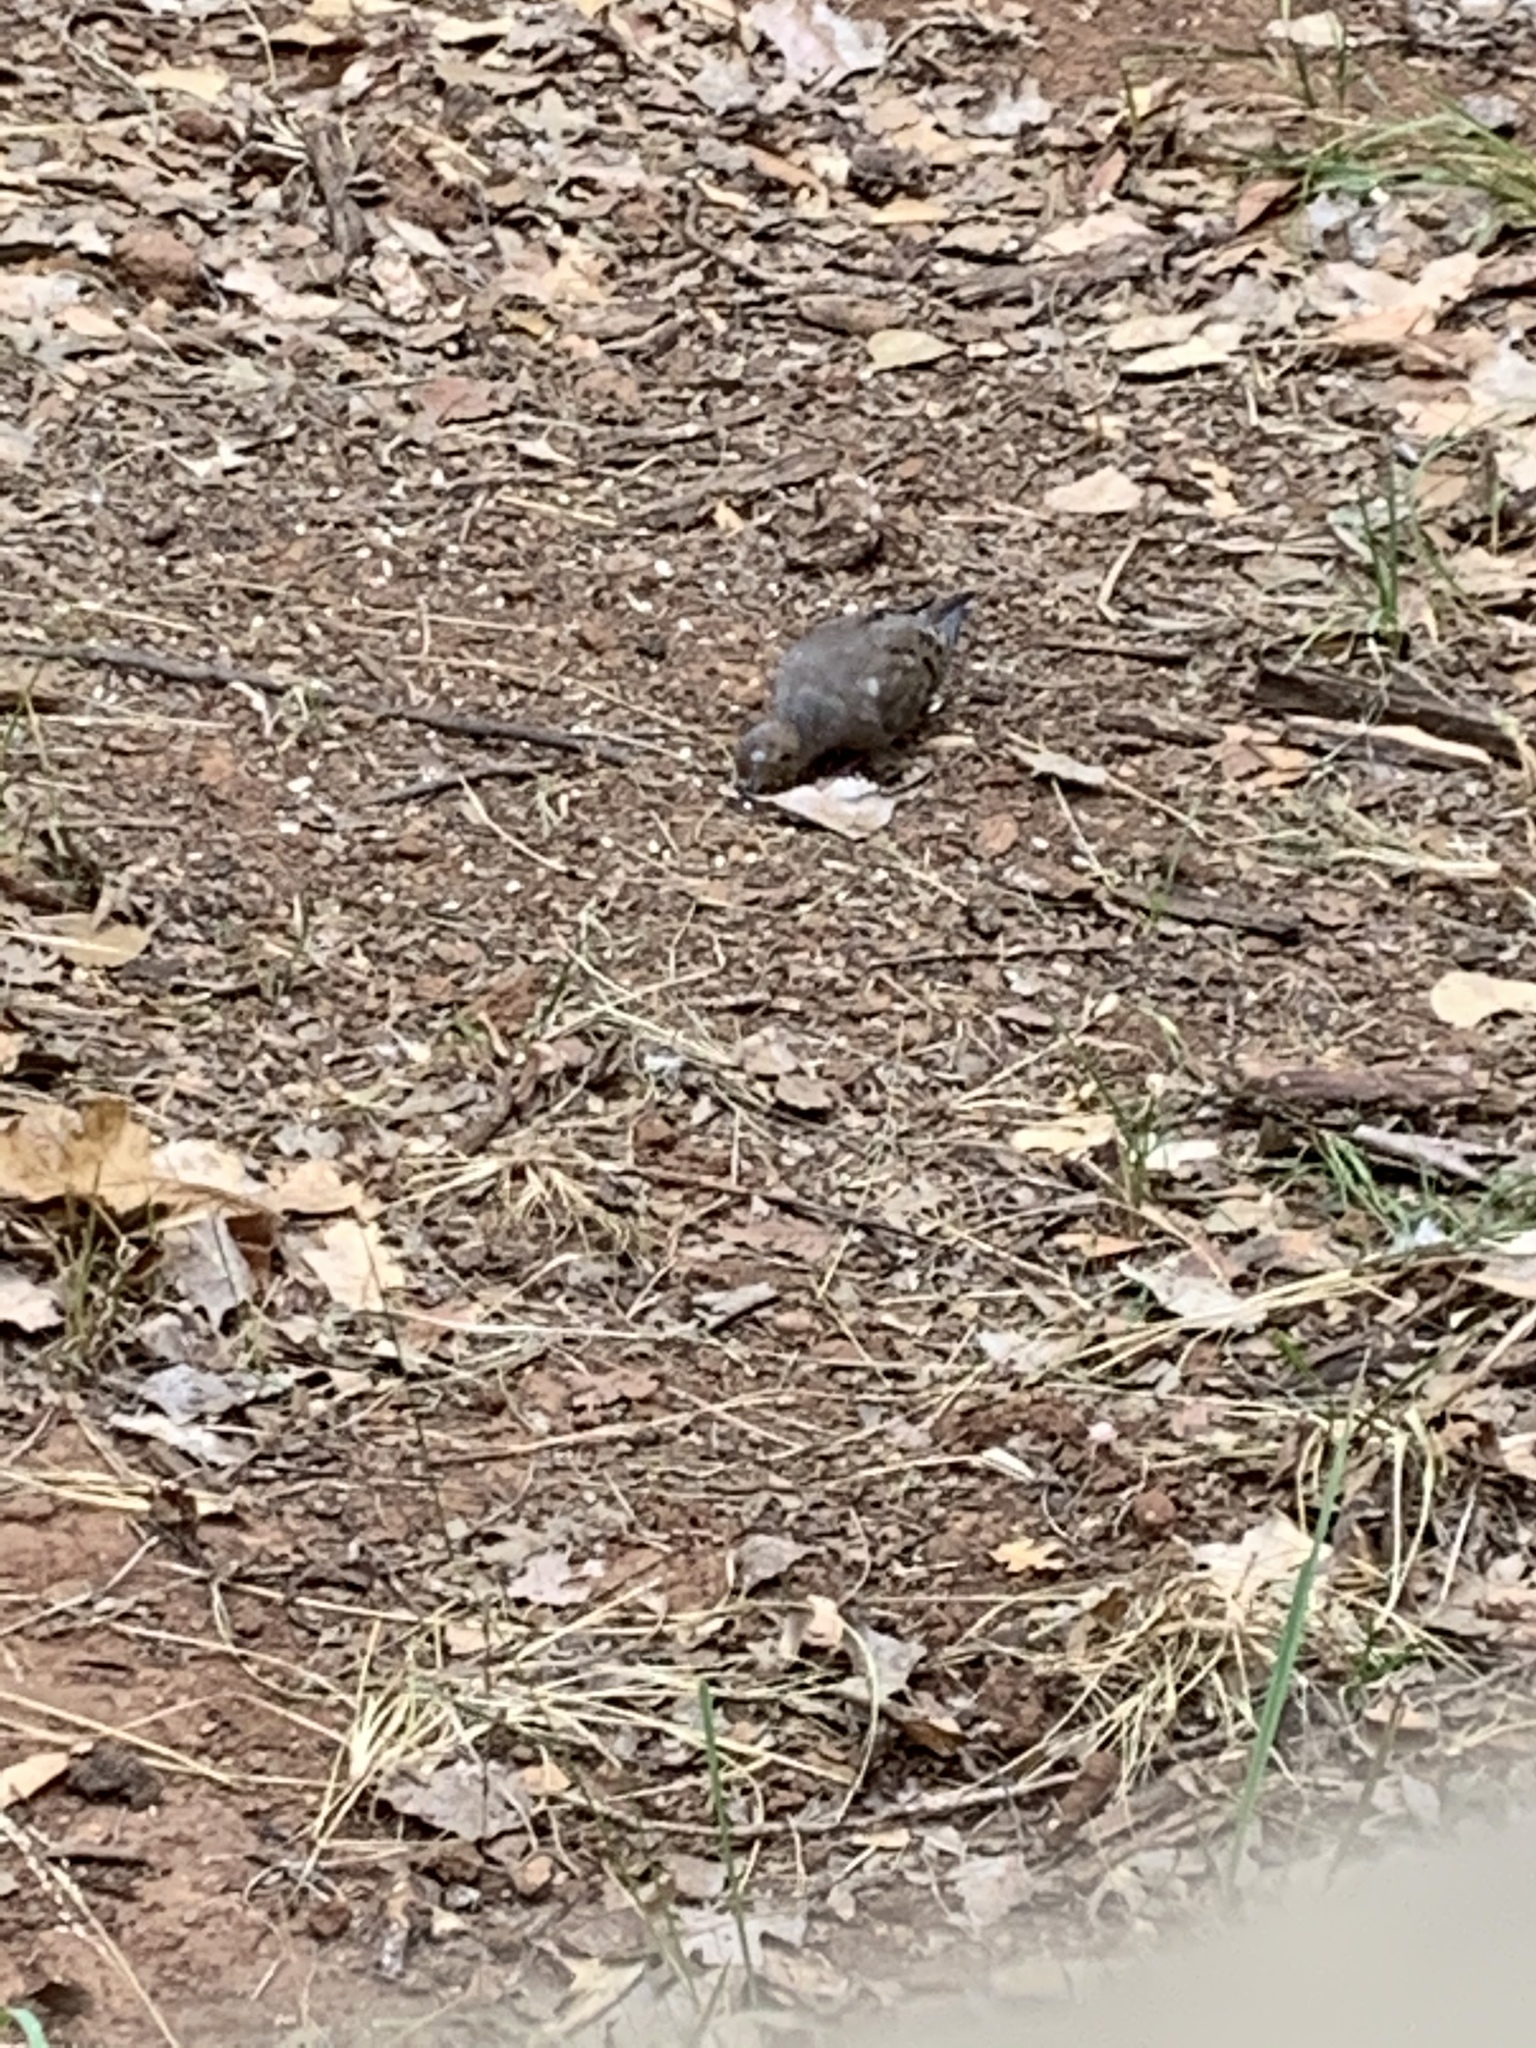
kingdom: Animalia
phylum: Chordata
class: Aves
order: Columbiformes
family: Columbidae
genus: Zenaida
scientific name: Zenaida macroura
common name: Mourning dove
